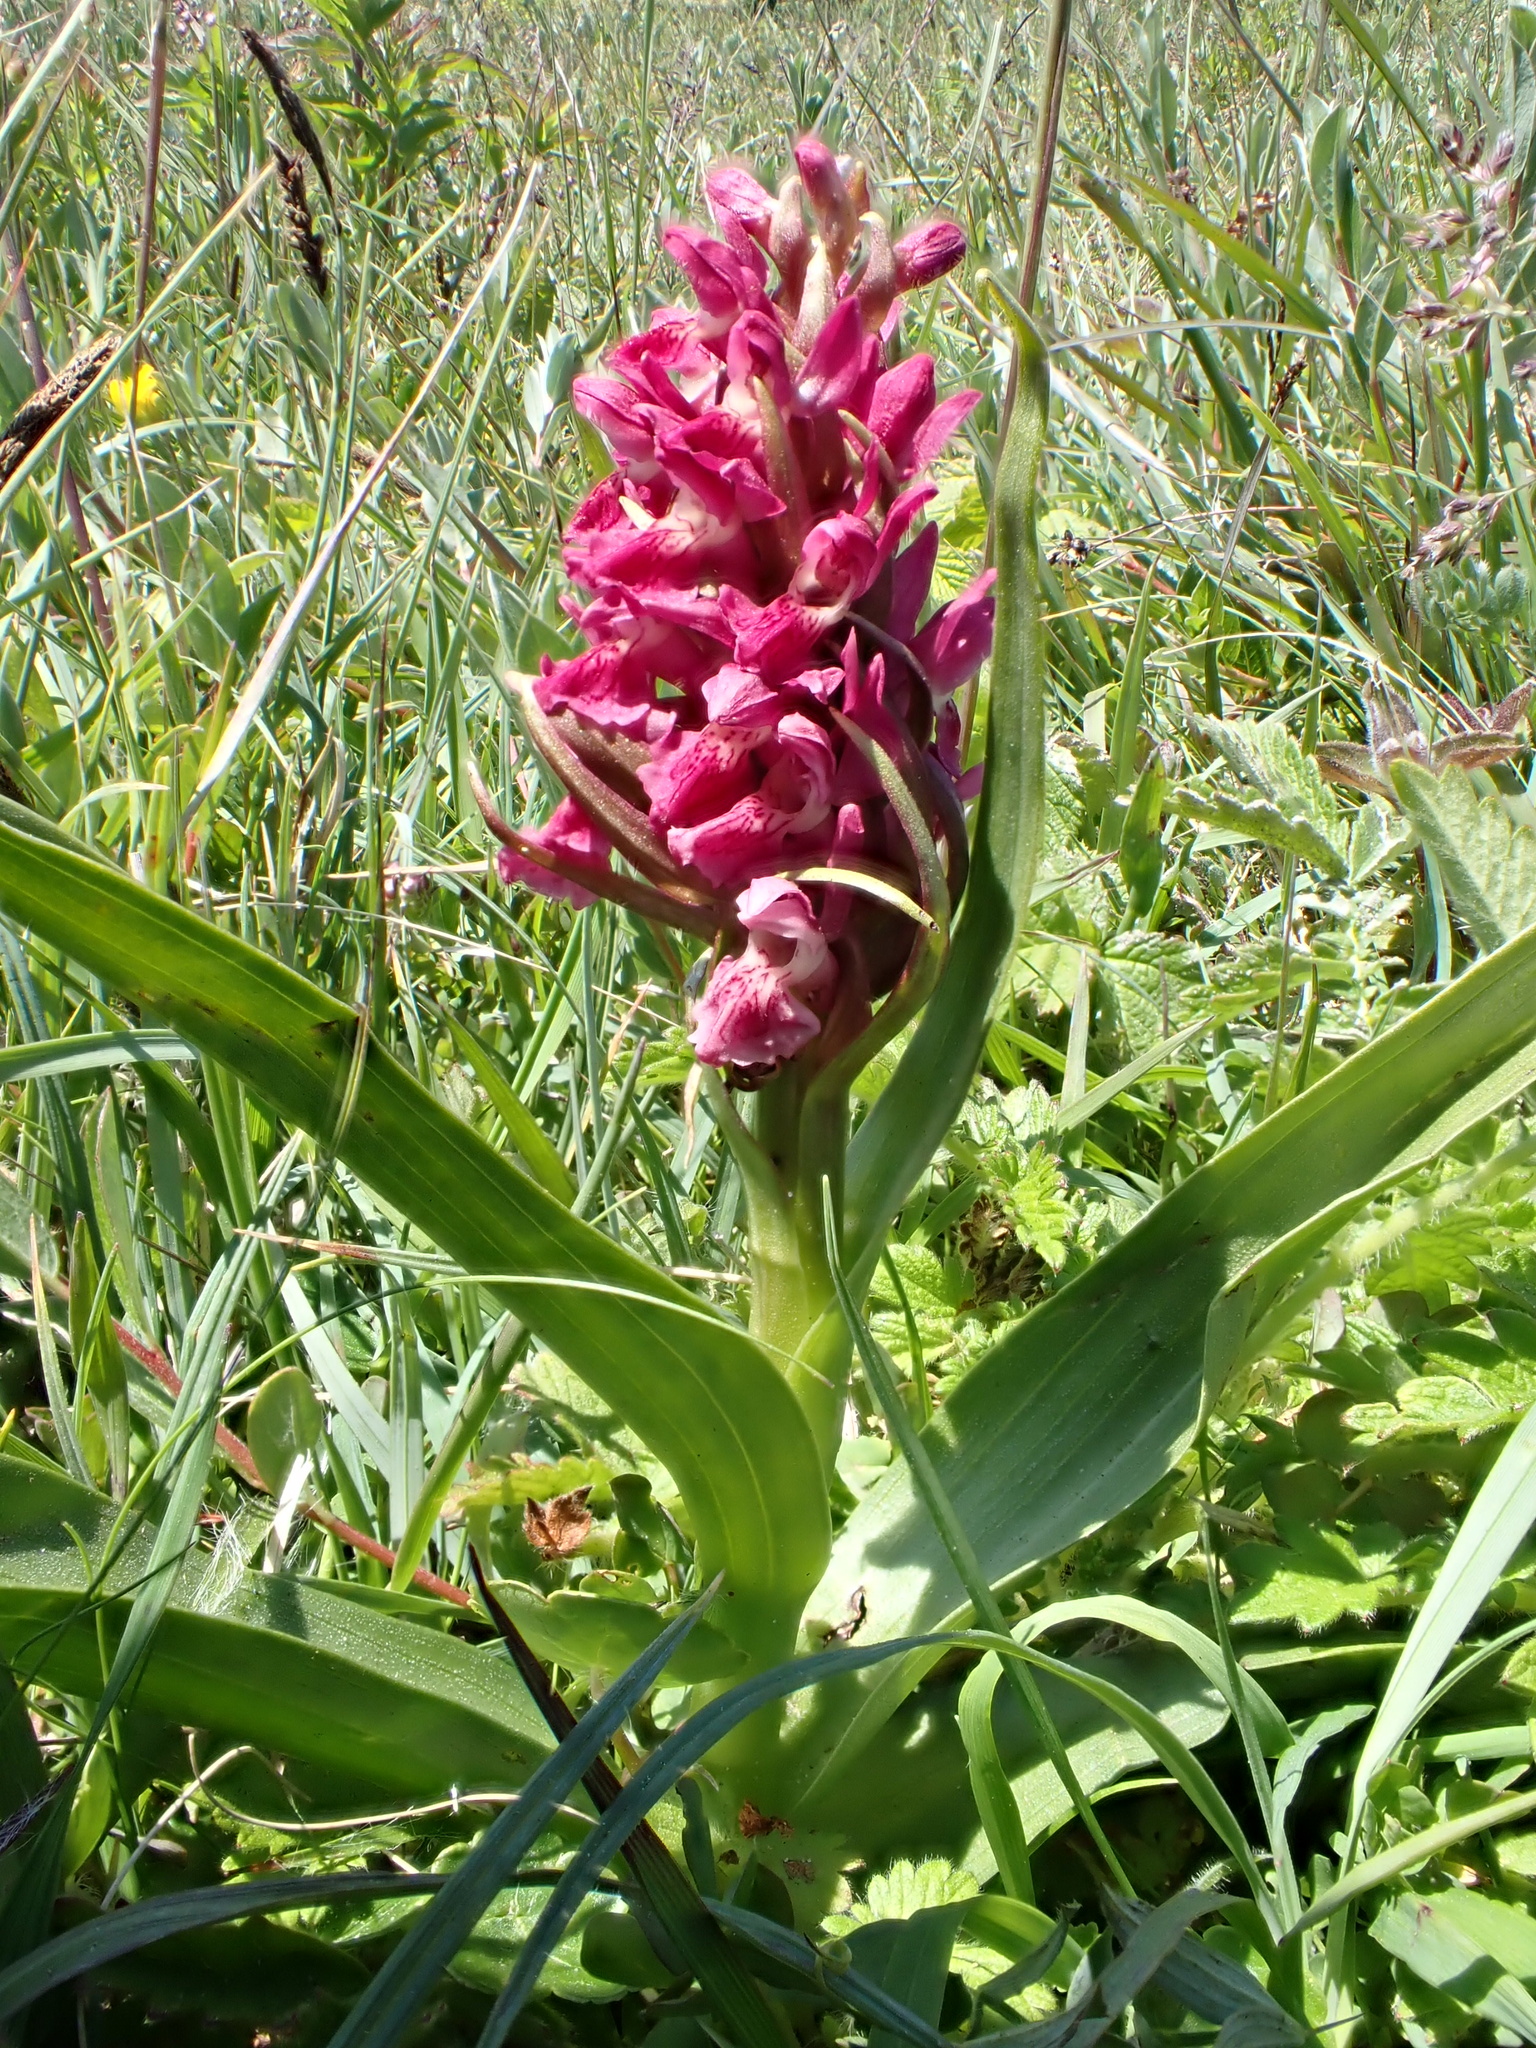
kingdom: Plantae
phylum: Tracheophyta
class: Liliopsida
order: Asparagales
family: Orchidaceae
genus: Dactylorhiza
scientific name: Dactylorhiza incarnata
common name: Early marsh-orchid
